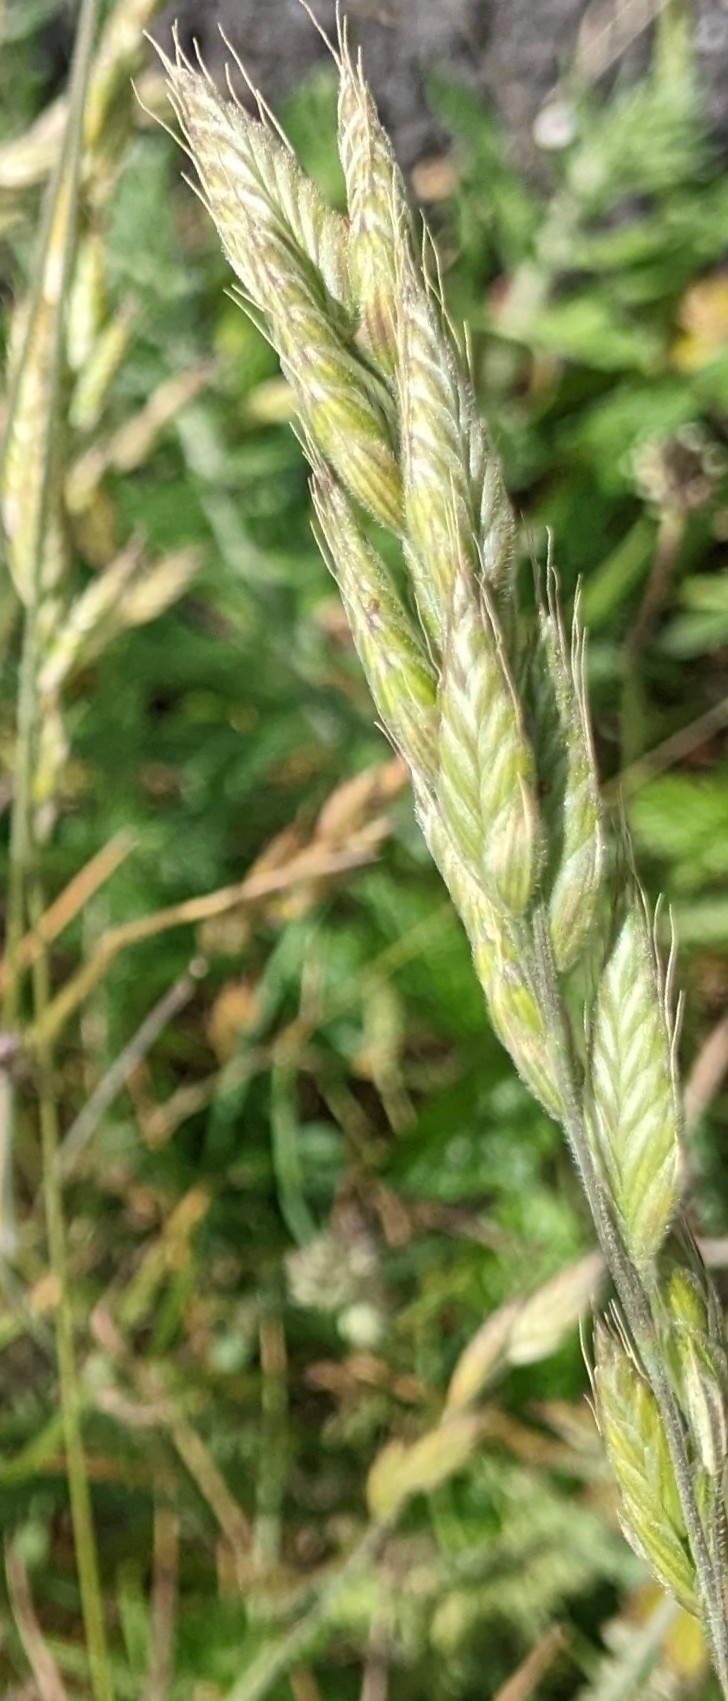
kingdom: Plantae
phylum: Tracheophyta
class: Liliopsida
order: Poales
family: Poaceae
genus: Bromus
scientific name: Bromus hordeaceus
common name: Soft brome
